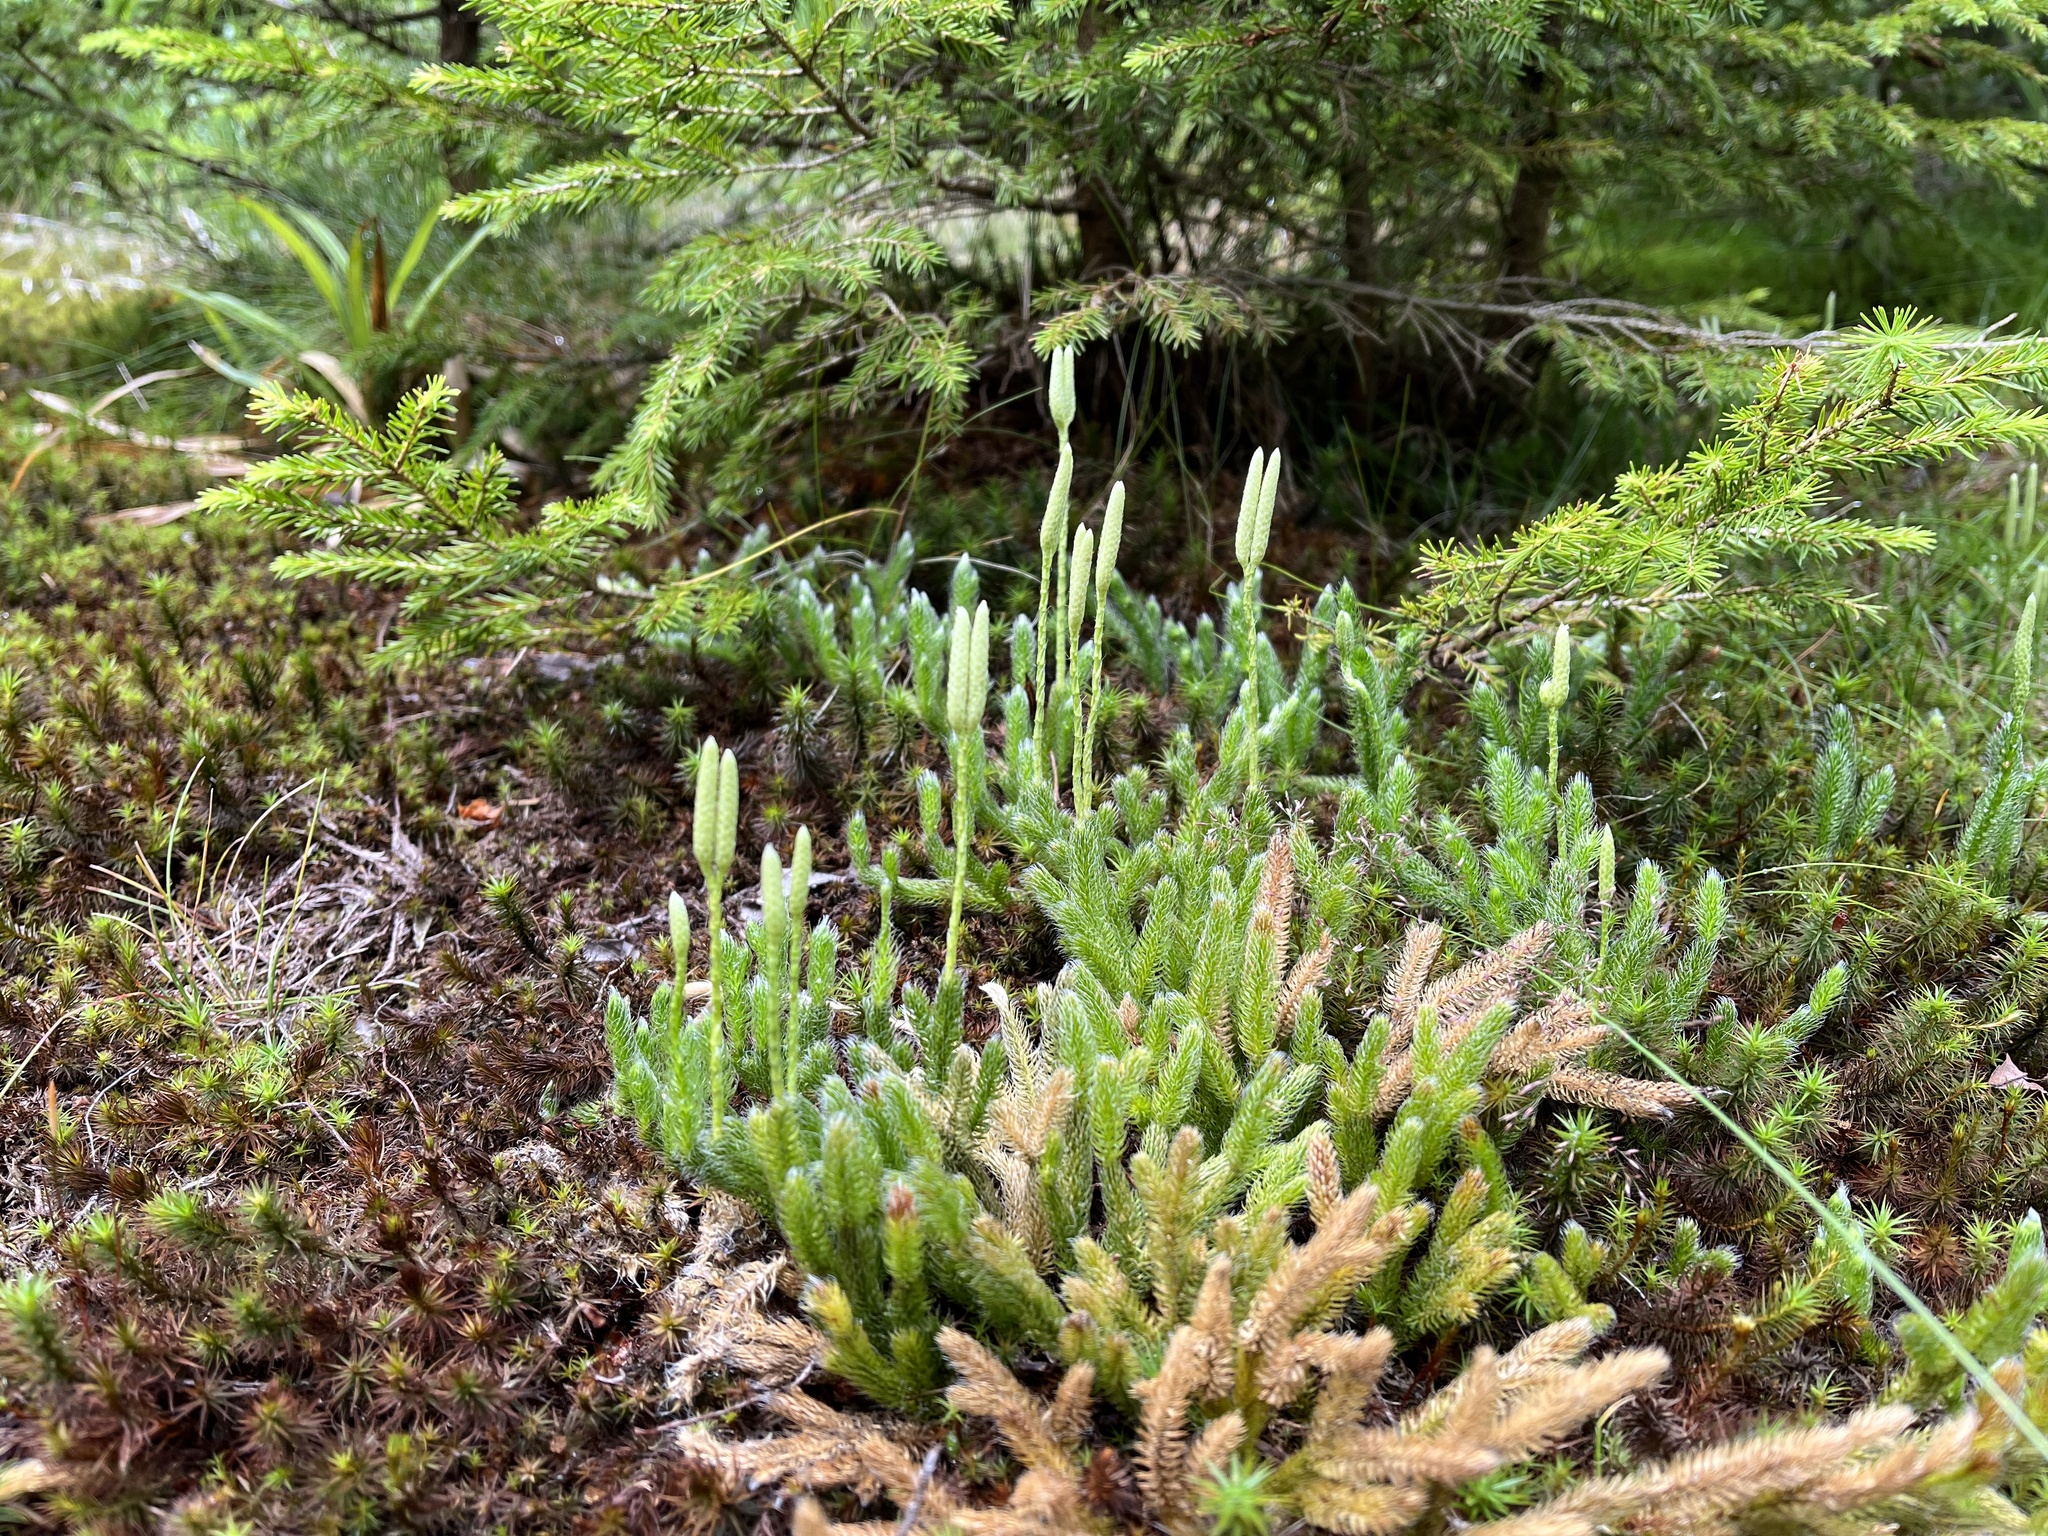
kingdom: Plantae
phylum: Tracheophyta
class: Lycopodiopsida
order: Lycopodiales
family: Lycopodiaceae
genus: Lycopodium
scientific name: Lycopodium clavatum
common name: Stag's-horn clubmoss
